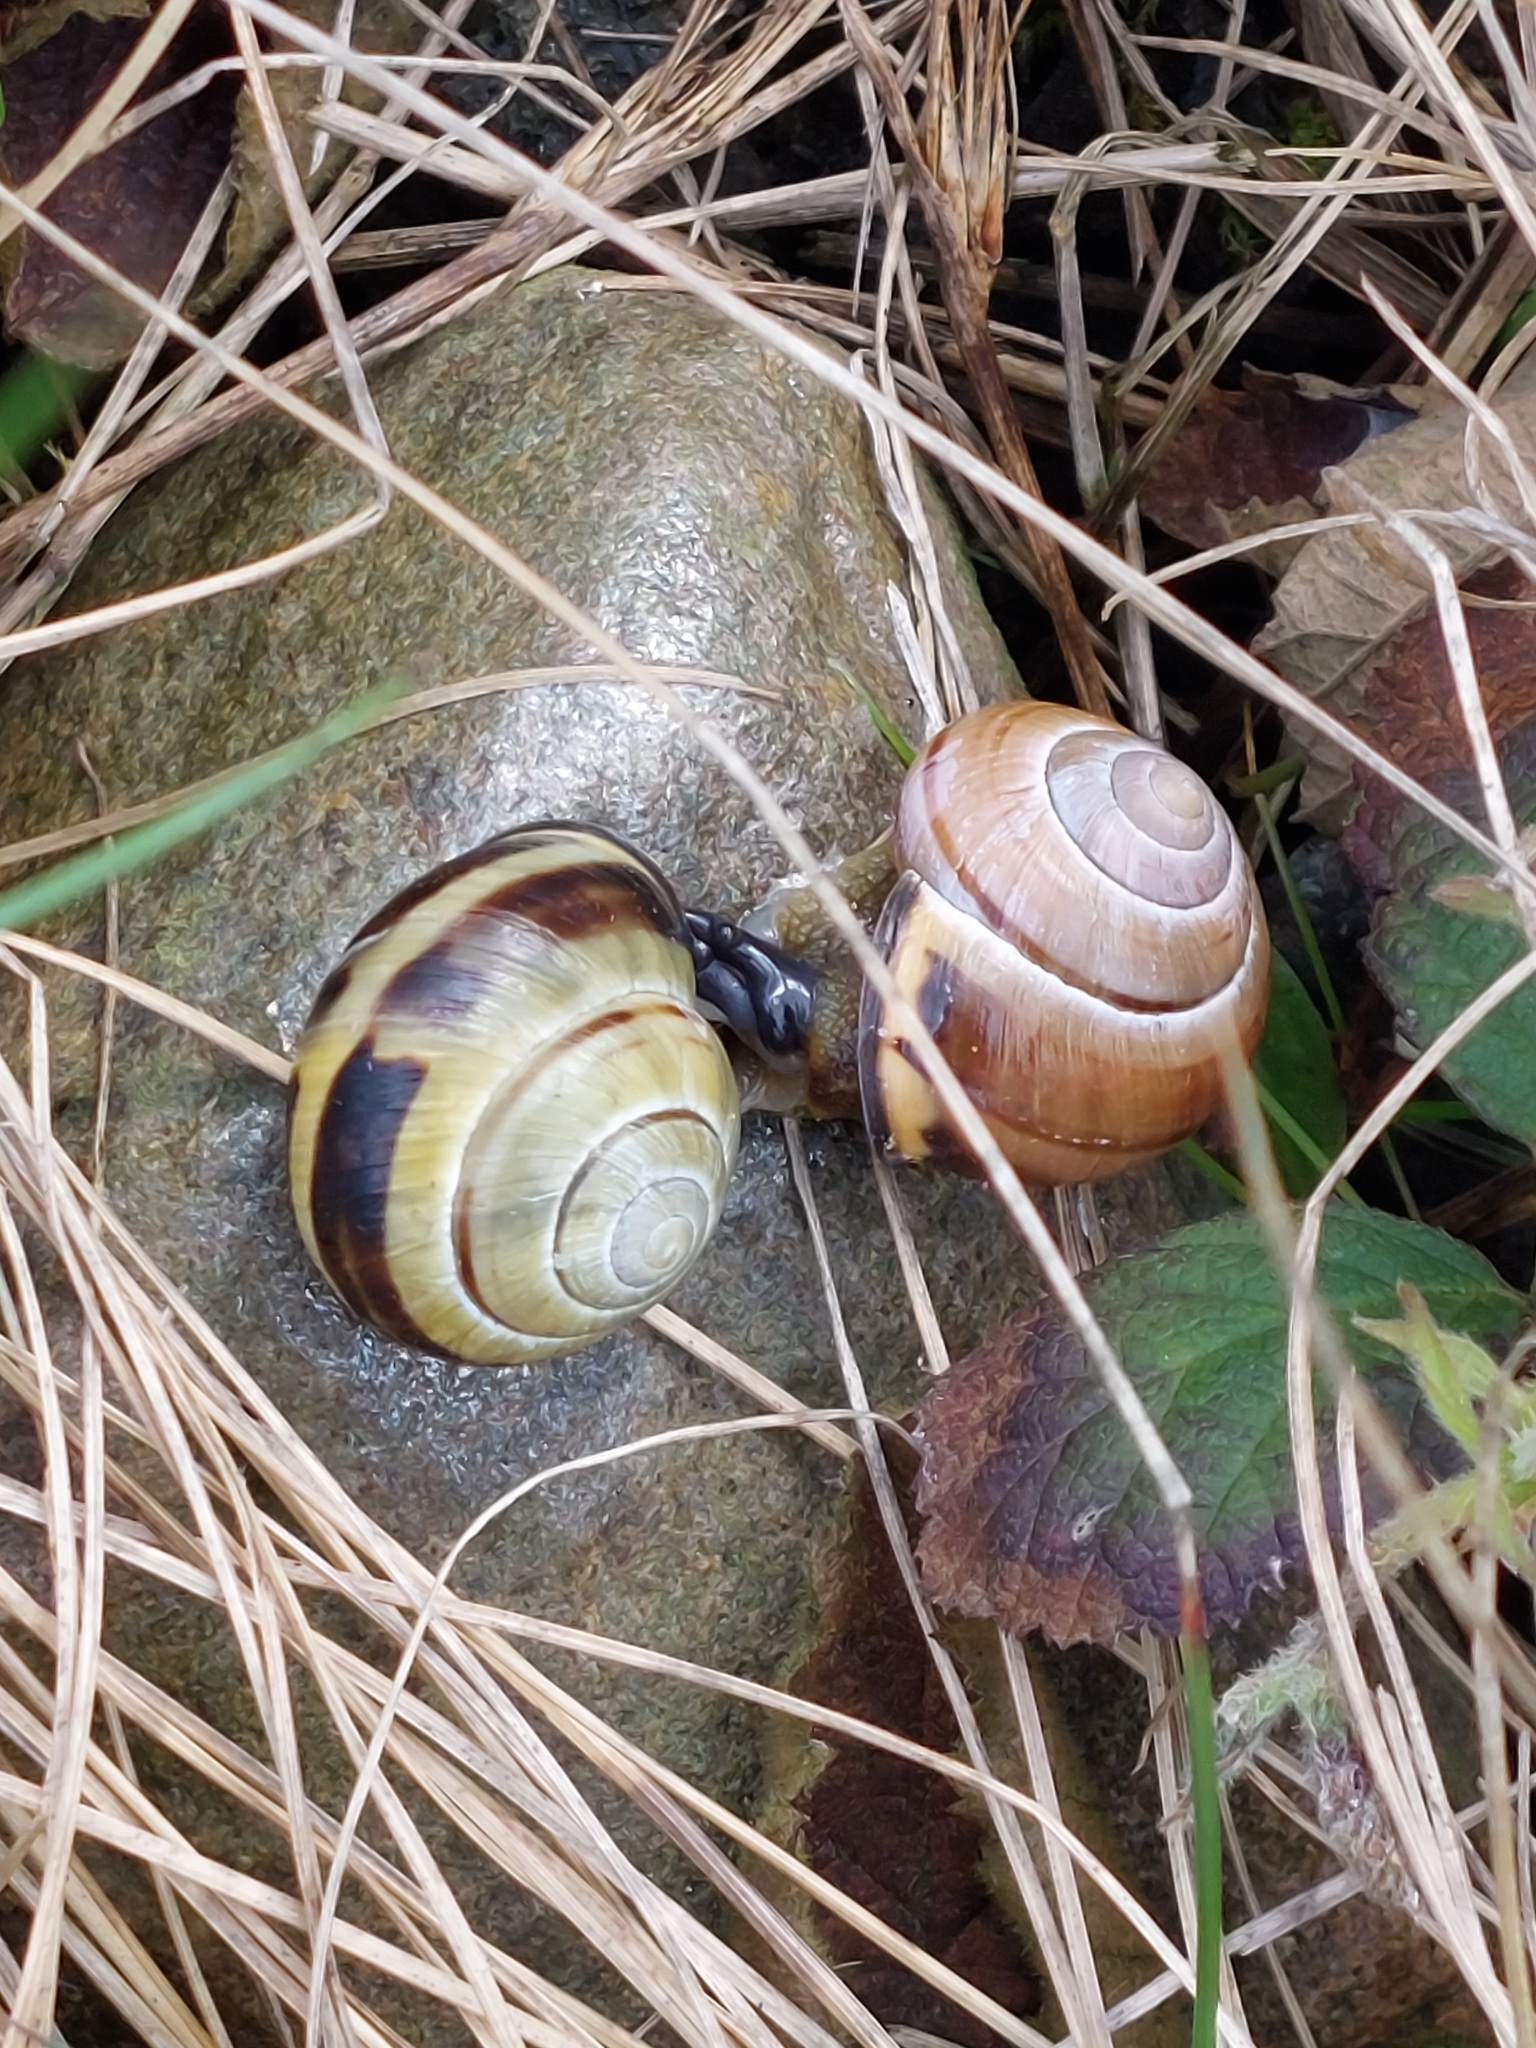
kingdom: Animalia
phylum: Mollusca
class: Gastropoda
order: Stylommatophora
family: Helicidae
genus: Cepaea
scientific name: Cepaea nemoralis
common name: Grovesnail
